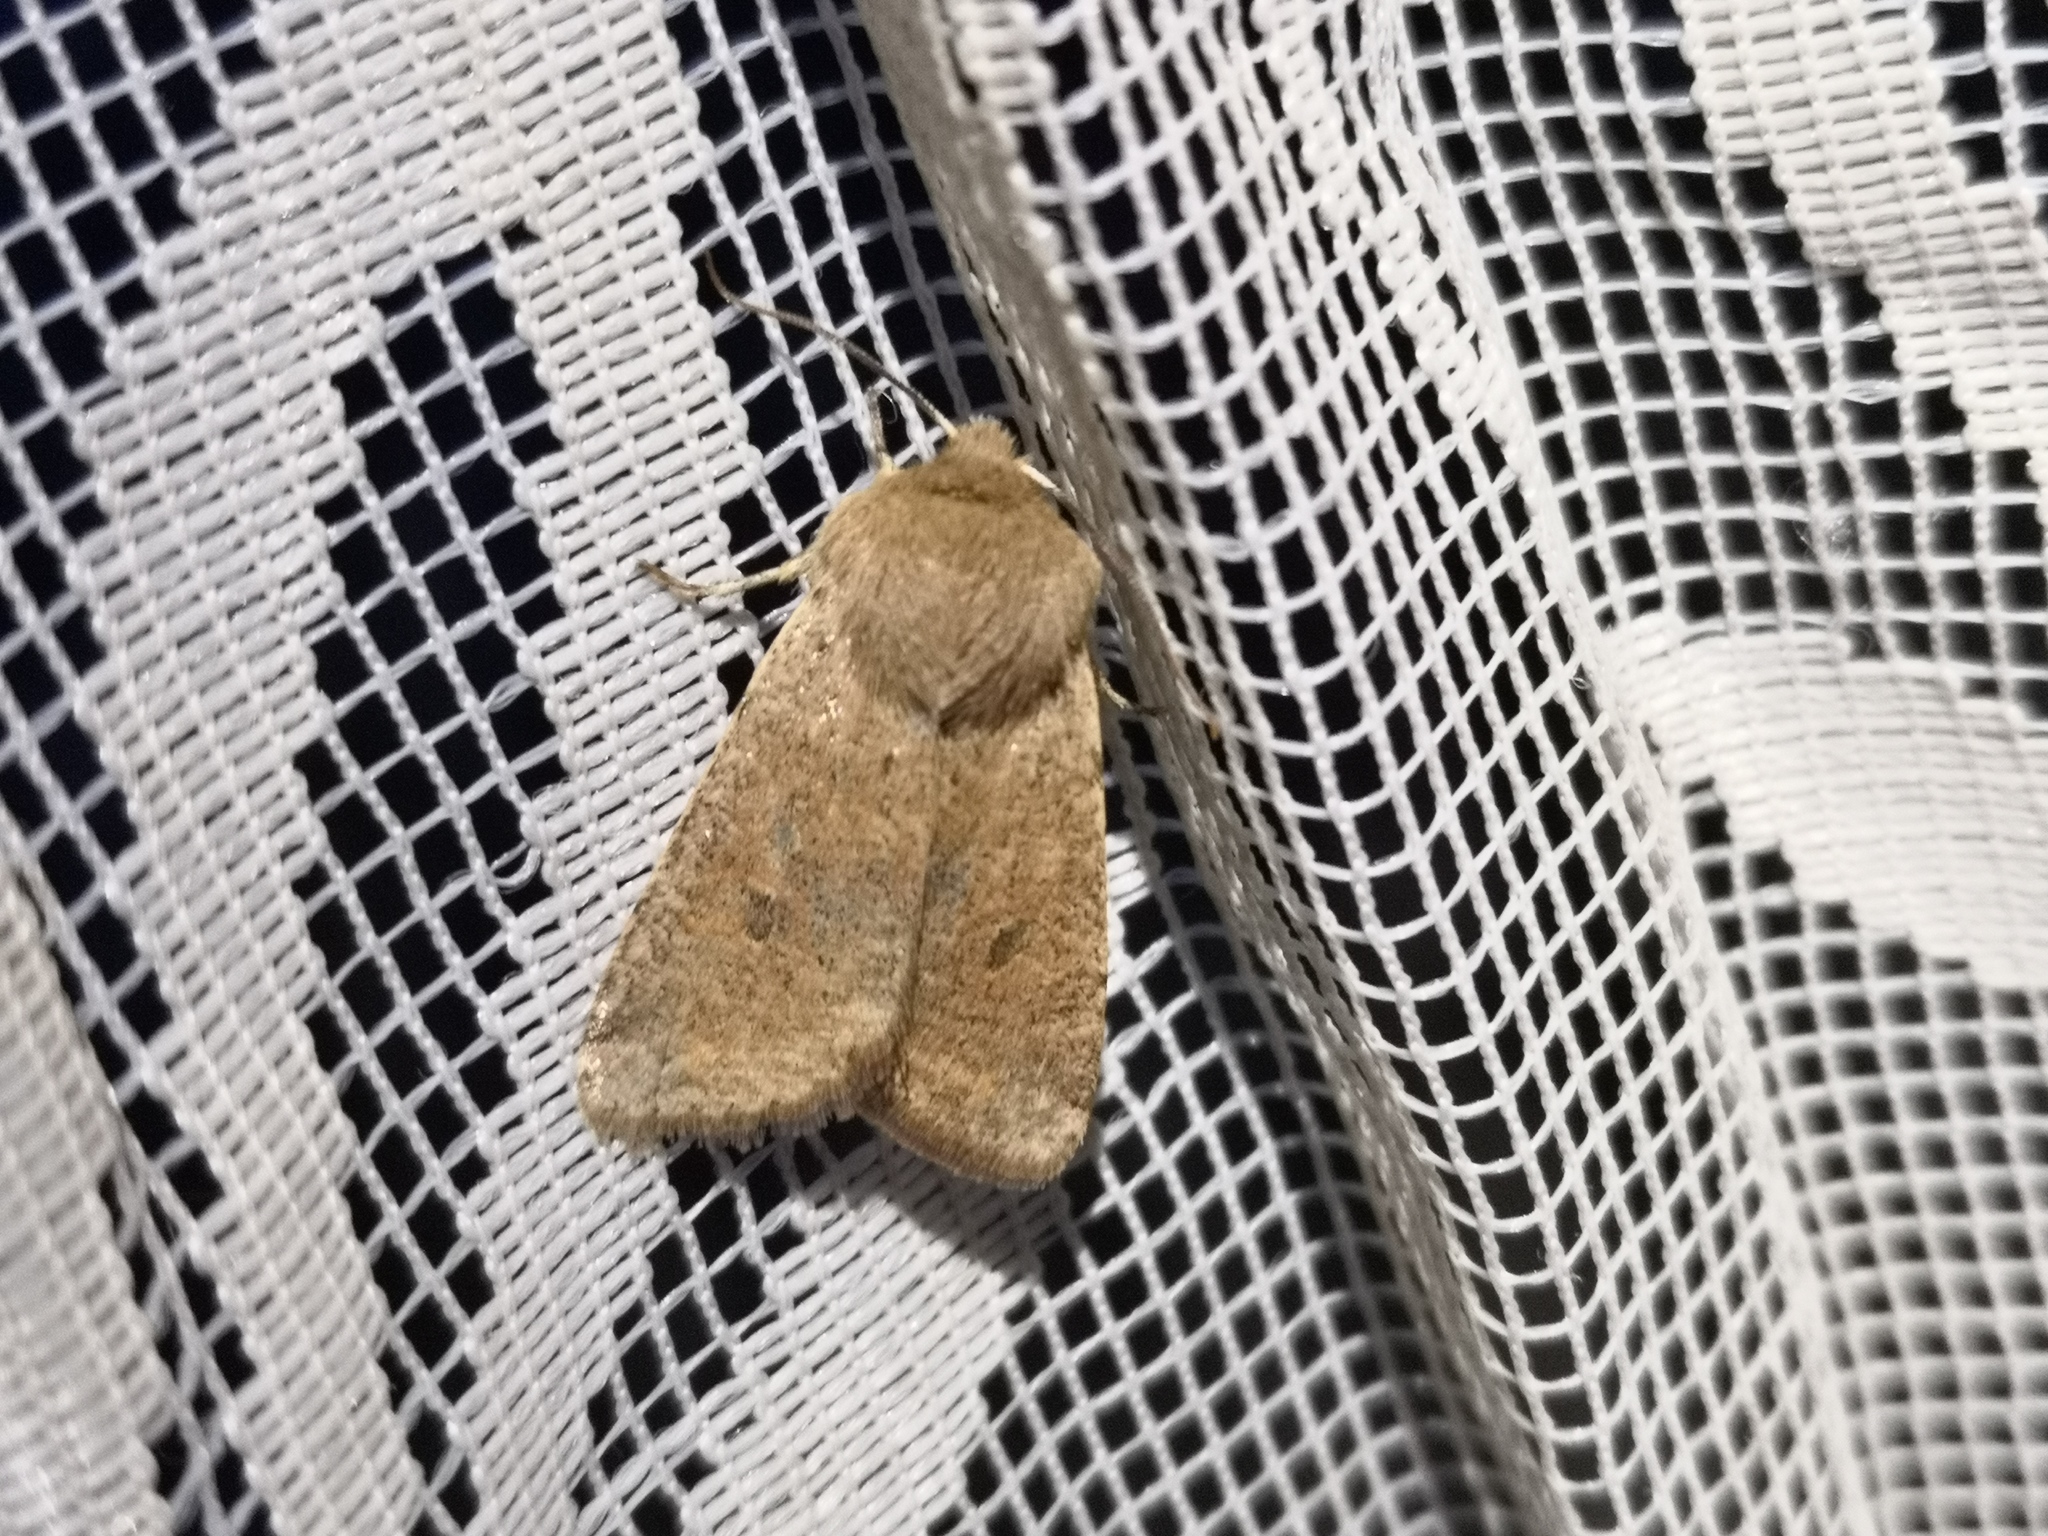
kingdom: Animalia
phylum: Arthropoda
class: Insecta
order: Lepidoptera
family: Noctuidae
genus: Orthosia
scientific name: Orthosia cruda
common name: Small quaker
